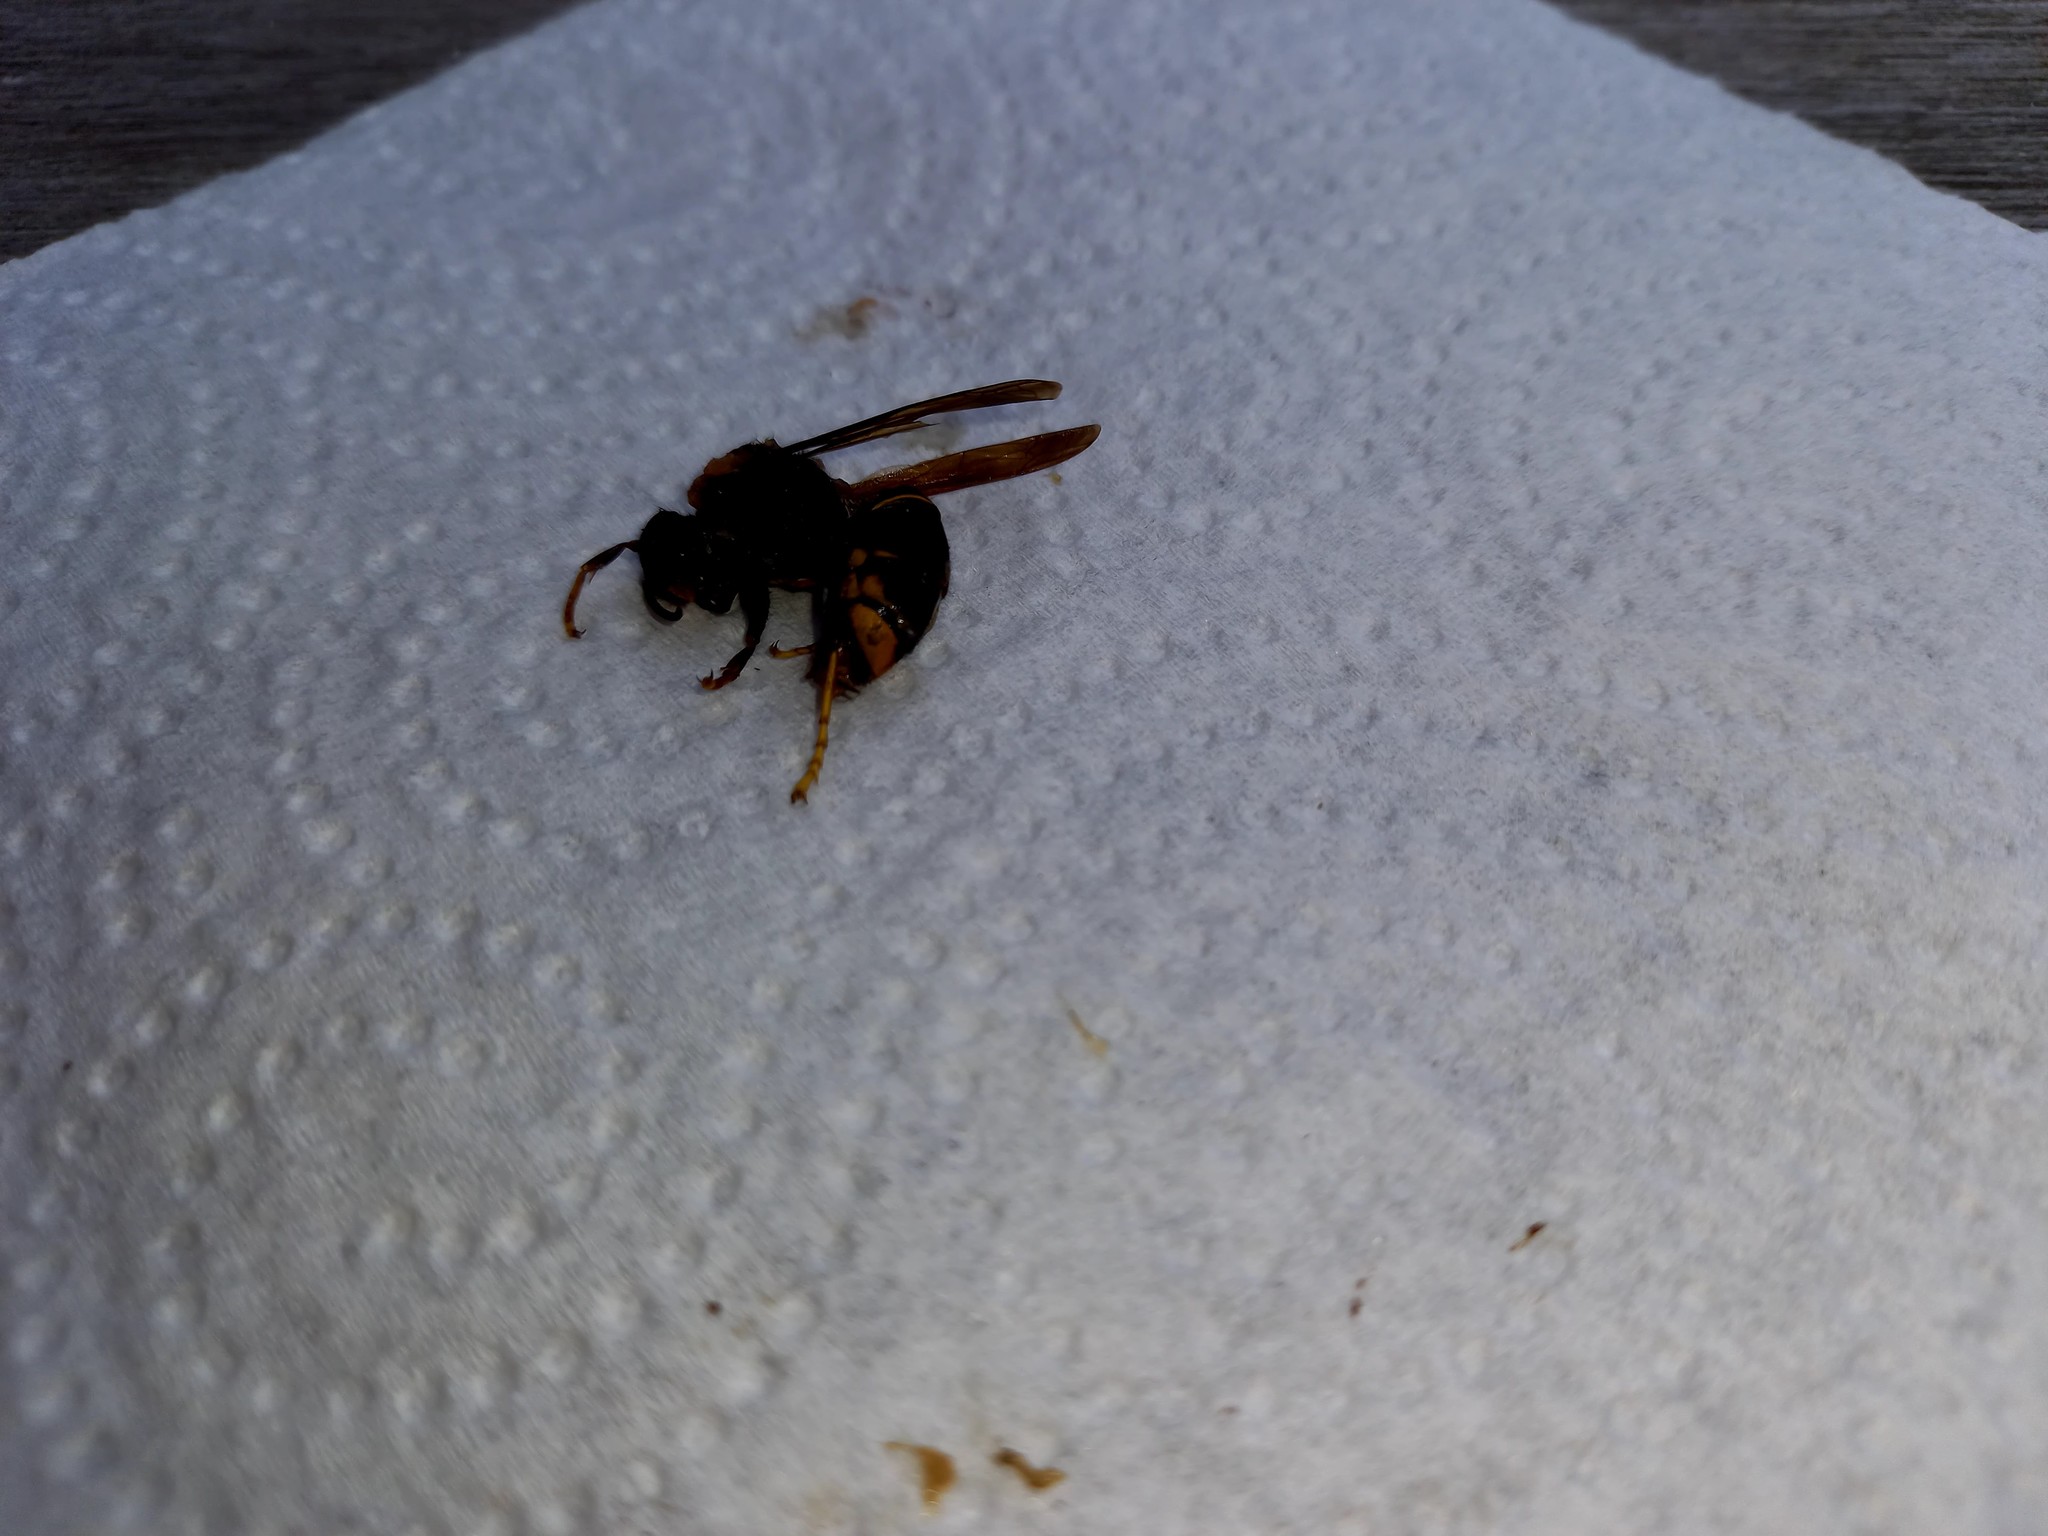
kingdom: Animalia
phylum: Arthropoda
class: Insecta
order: Hymenoptera
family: Vespidae
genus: Vespa
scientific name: Vespa velutina
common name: Asian hornet
